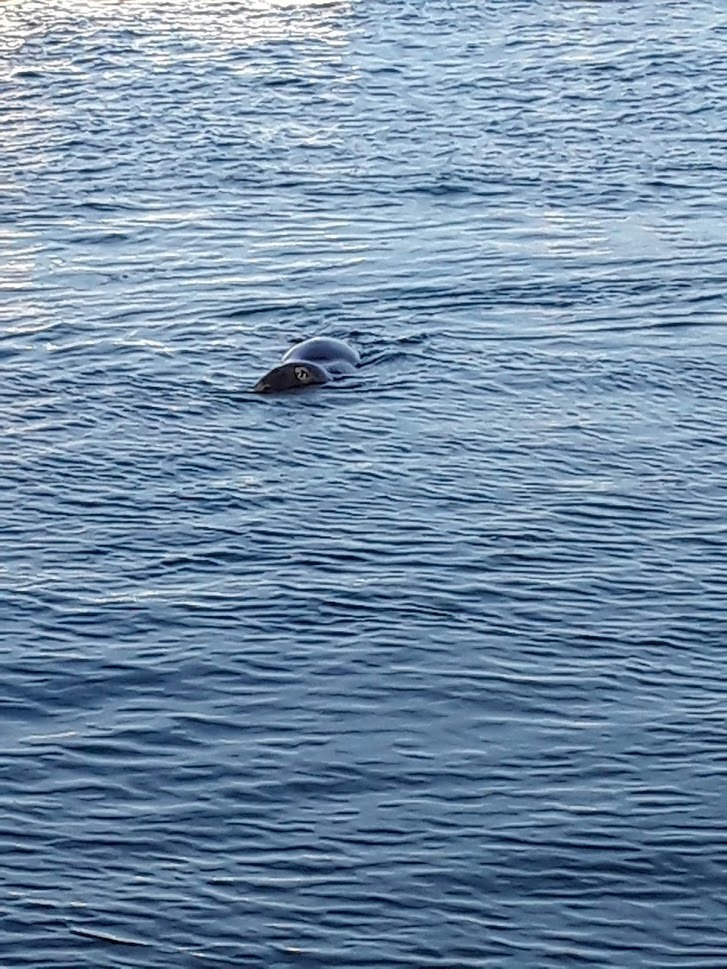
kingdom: Animalia
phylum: Chordata
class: Mammalia
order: Carnivora
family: Phocidae
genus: Halichoerus
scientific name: Halichoerus grypus
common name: Grey seal
